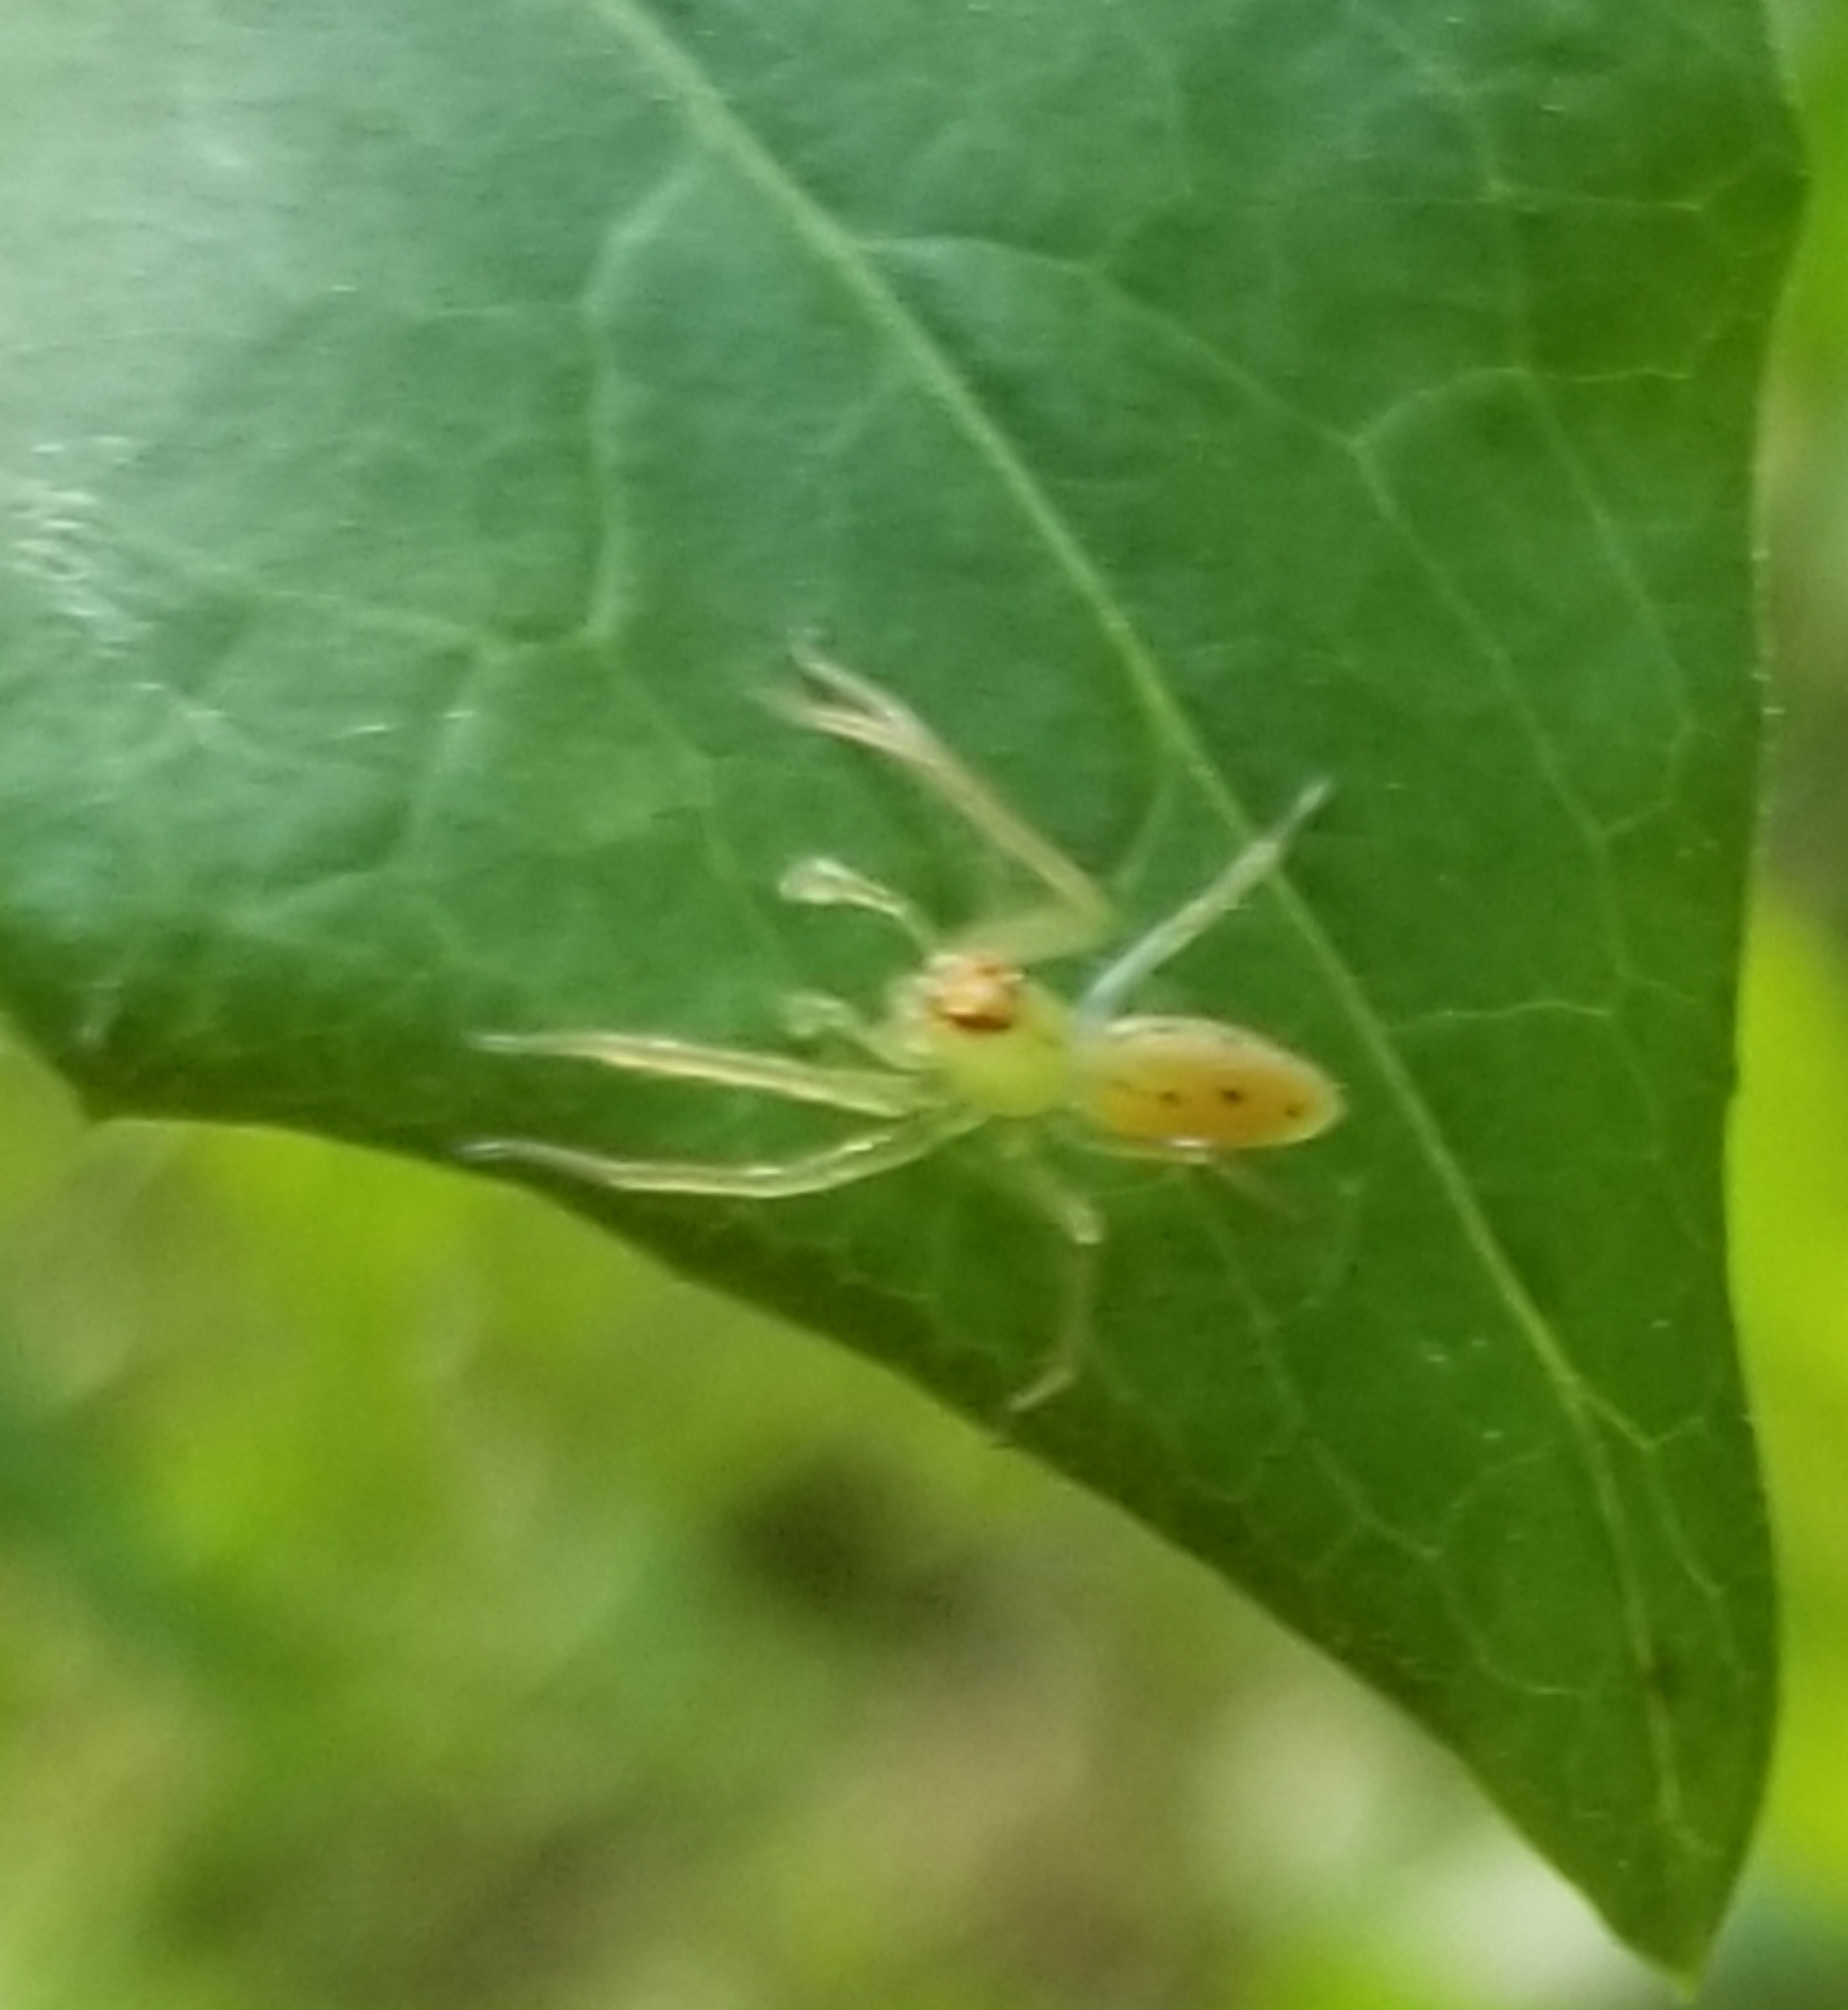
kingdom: Animalia
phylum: Arthropoda
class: Arachnida
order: Araneae
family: Salticidae
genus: Lyssomanes
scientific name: Lyssomanes viridis
